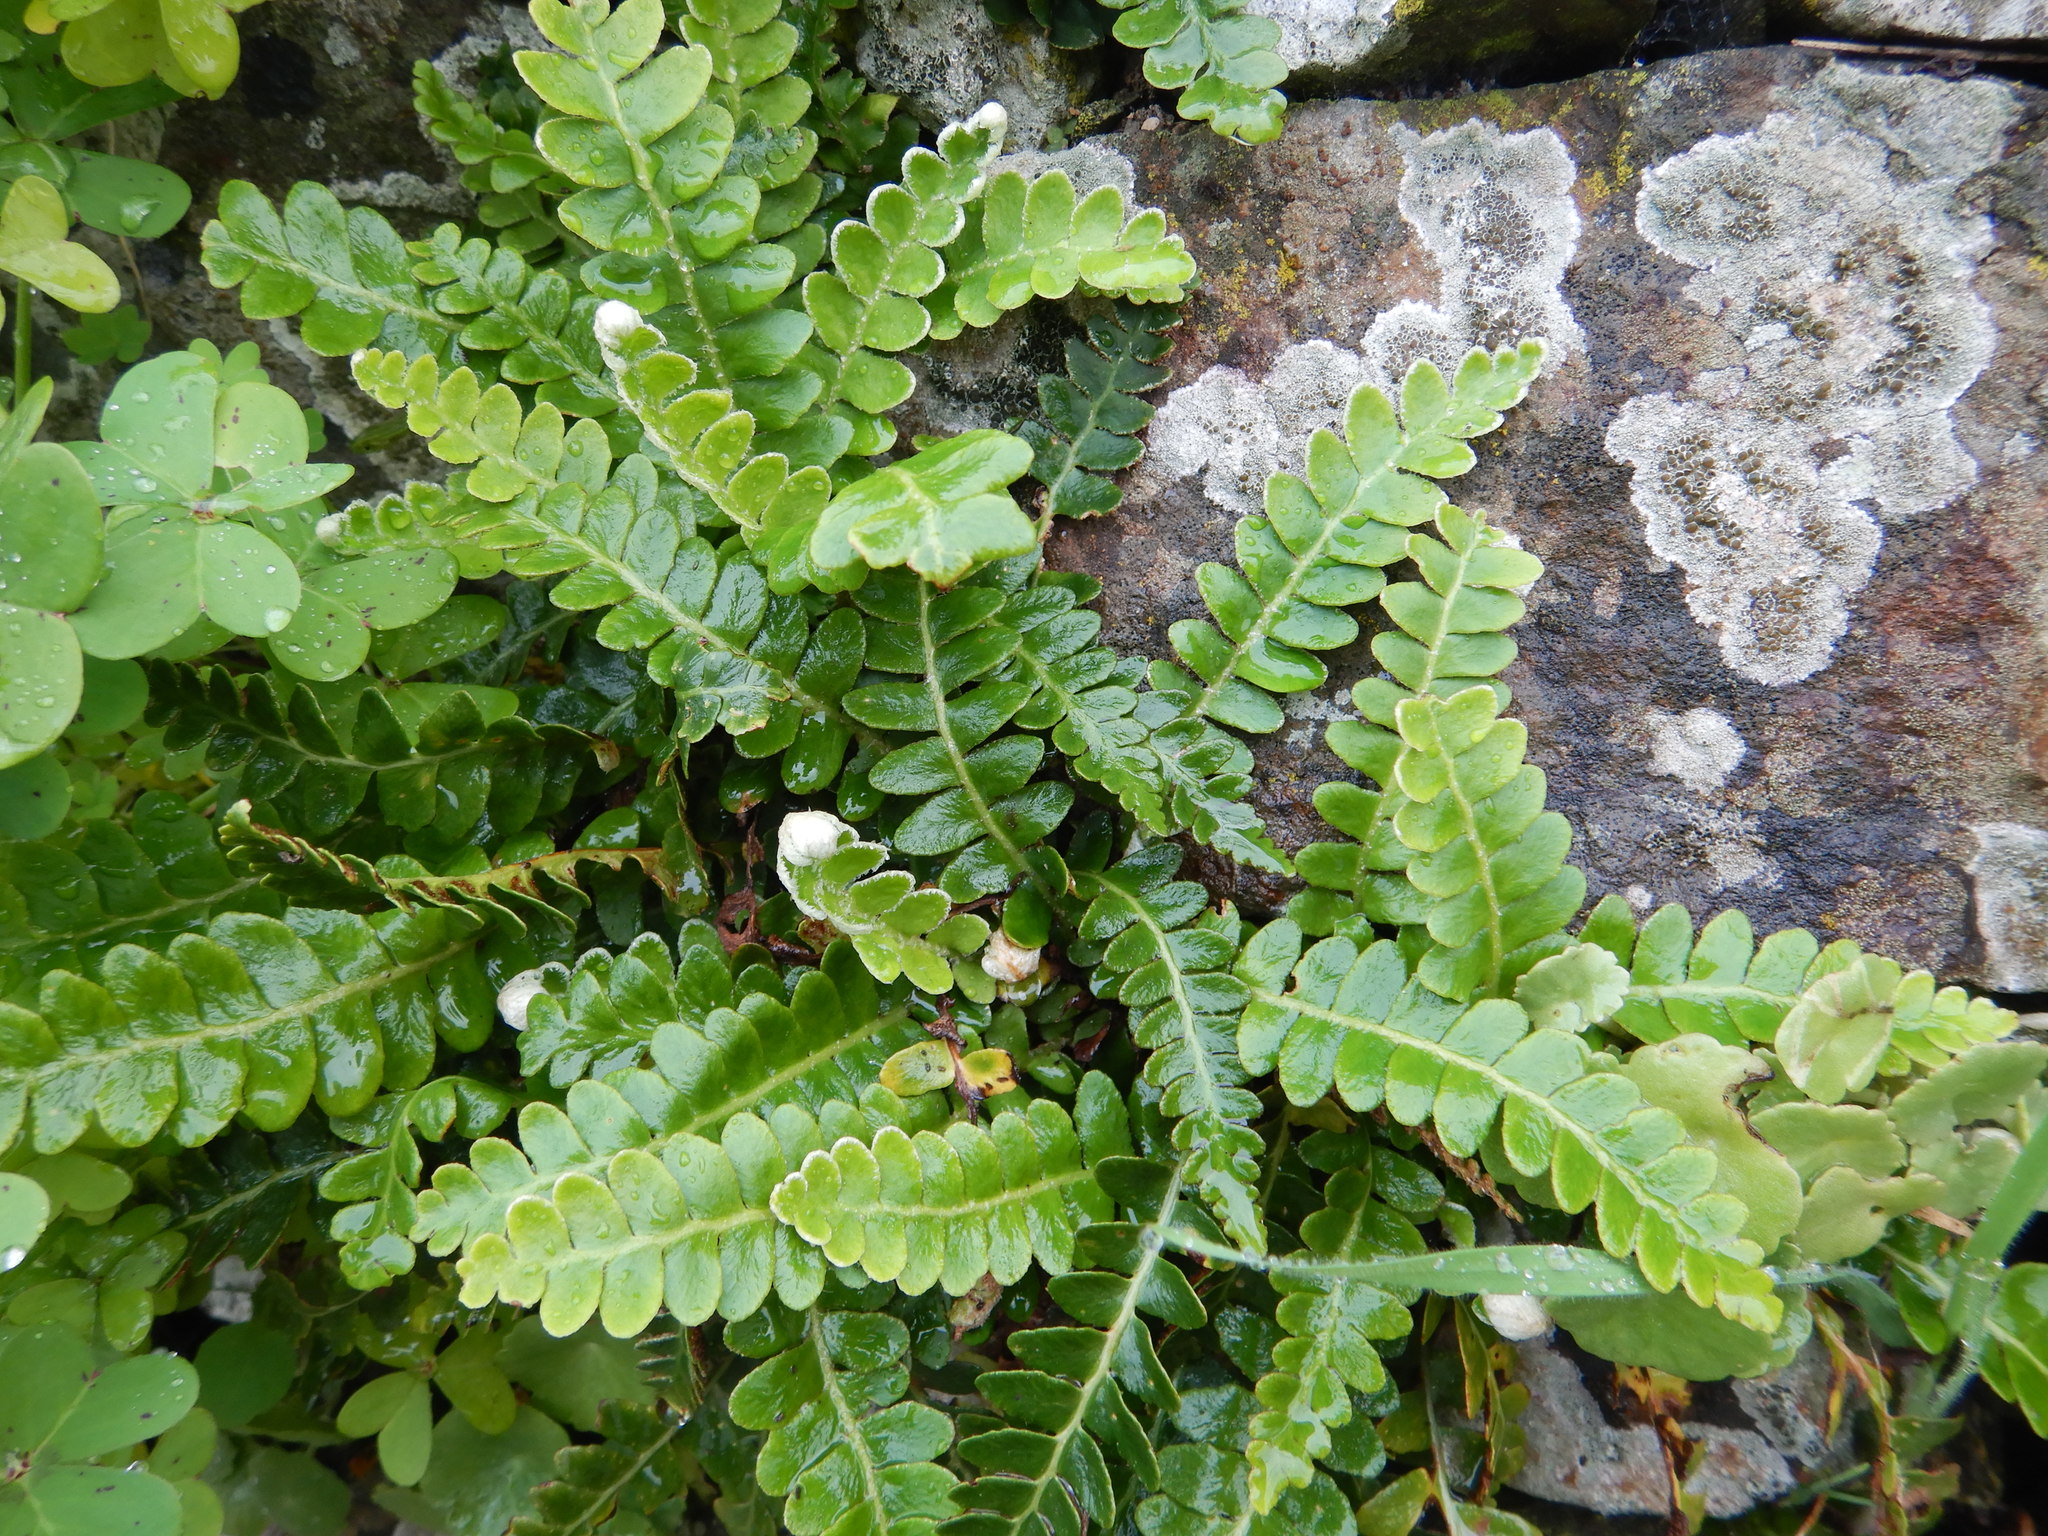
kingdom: Plantae
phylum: Tracheophyta
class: Polypodiopsida
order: Polypodiales
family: Aspleniaceae
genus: Asplenium
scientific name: Asplenium ceterach
